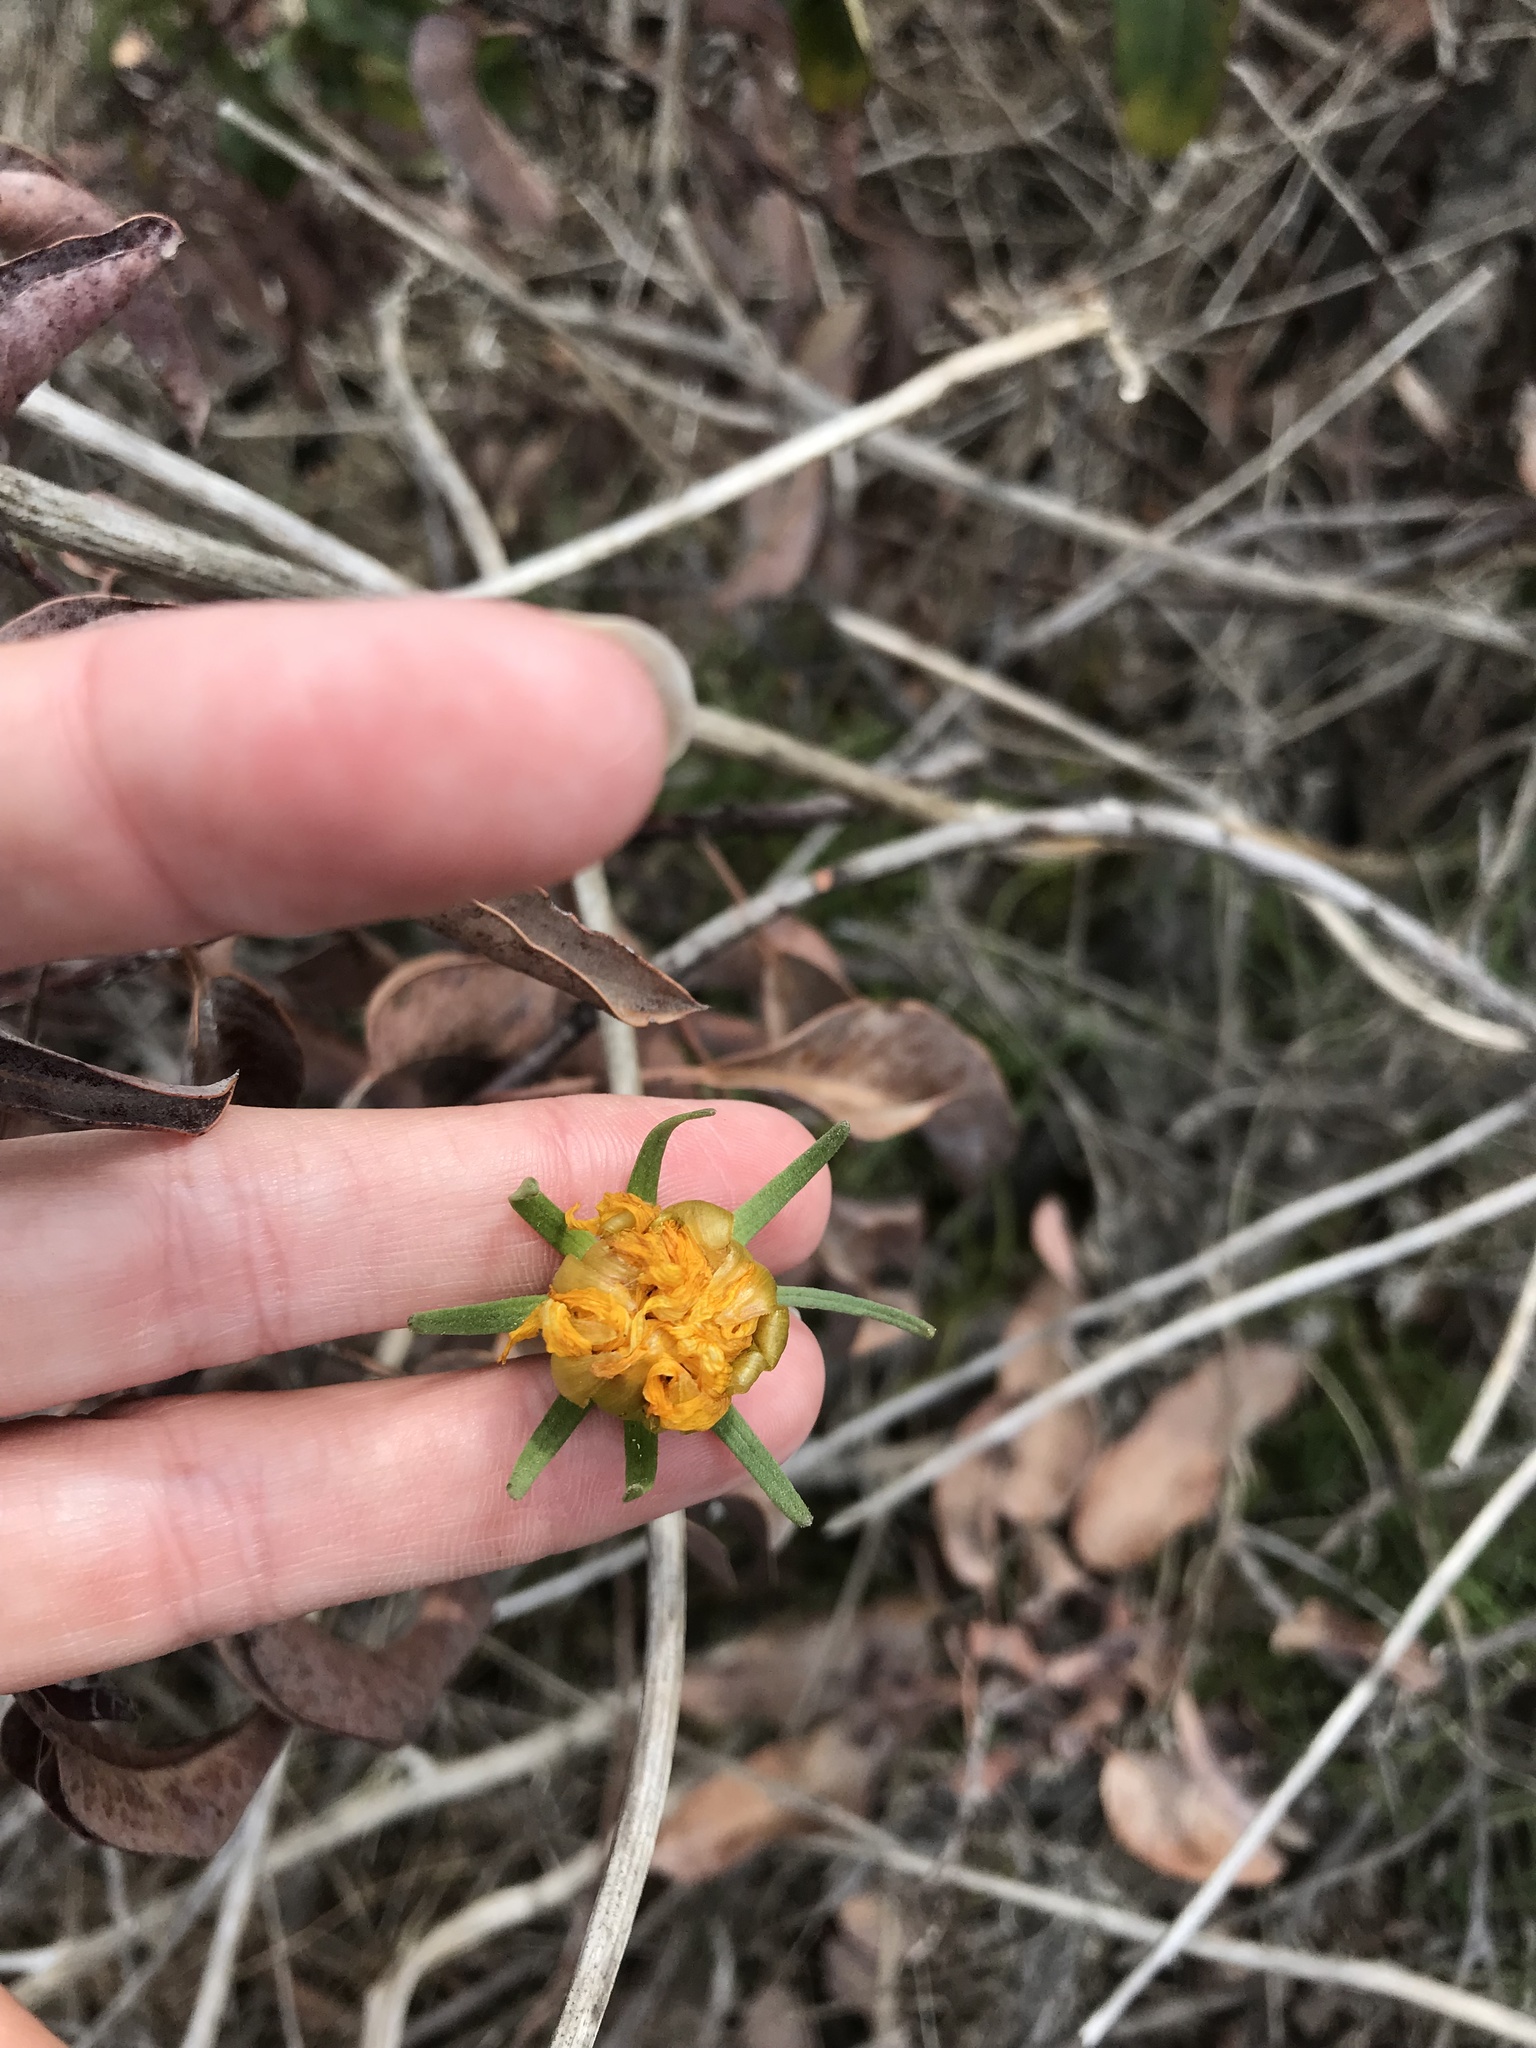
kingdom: Plantae
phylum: Tracheophyta
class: Magnoliopsida
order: Asterales
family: Asteraceae
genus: Coreopsis
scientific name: Coreopsis maritima
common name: Sea-dahlia
